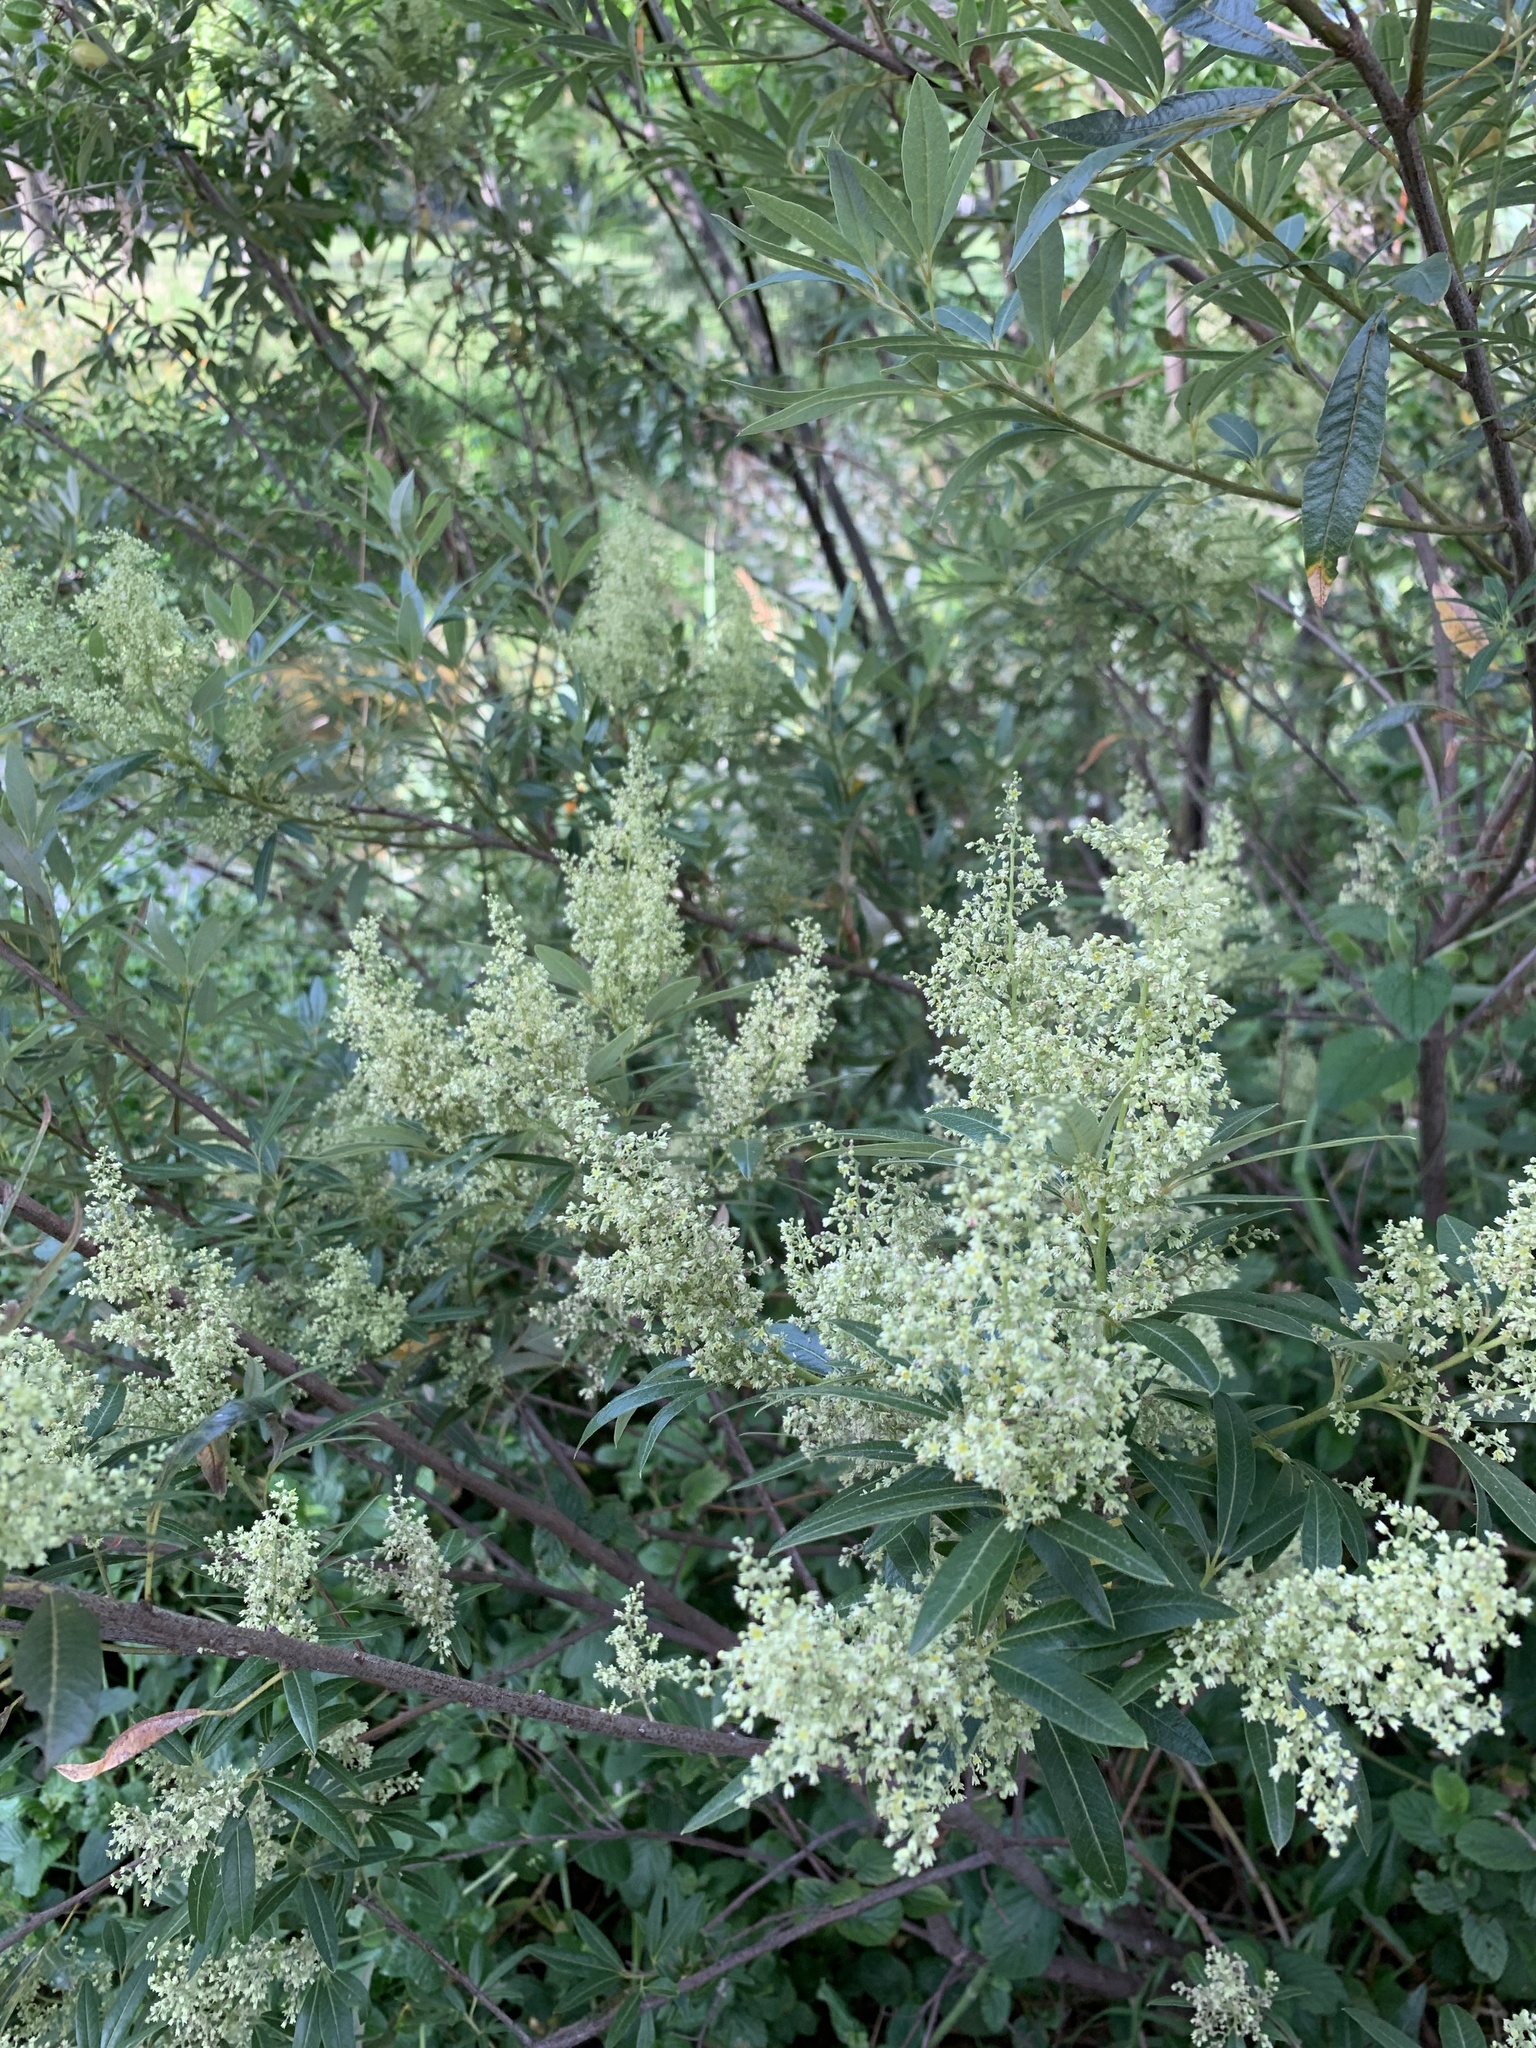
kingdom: Plantae
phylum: Tracheophyta
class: Magnoliopsida
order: Sapindales
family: Anacardiaceae
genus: Searsia
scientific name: Searsia angustifolia
